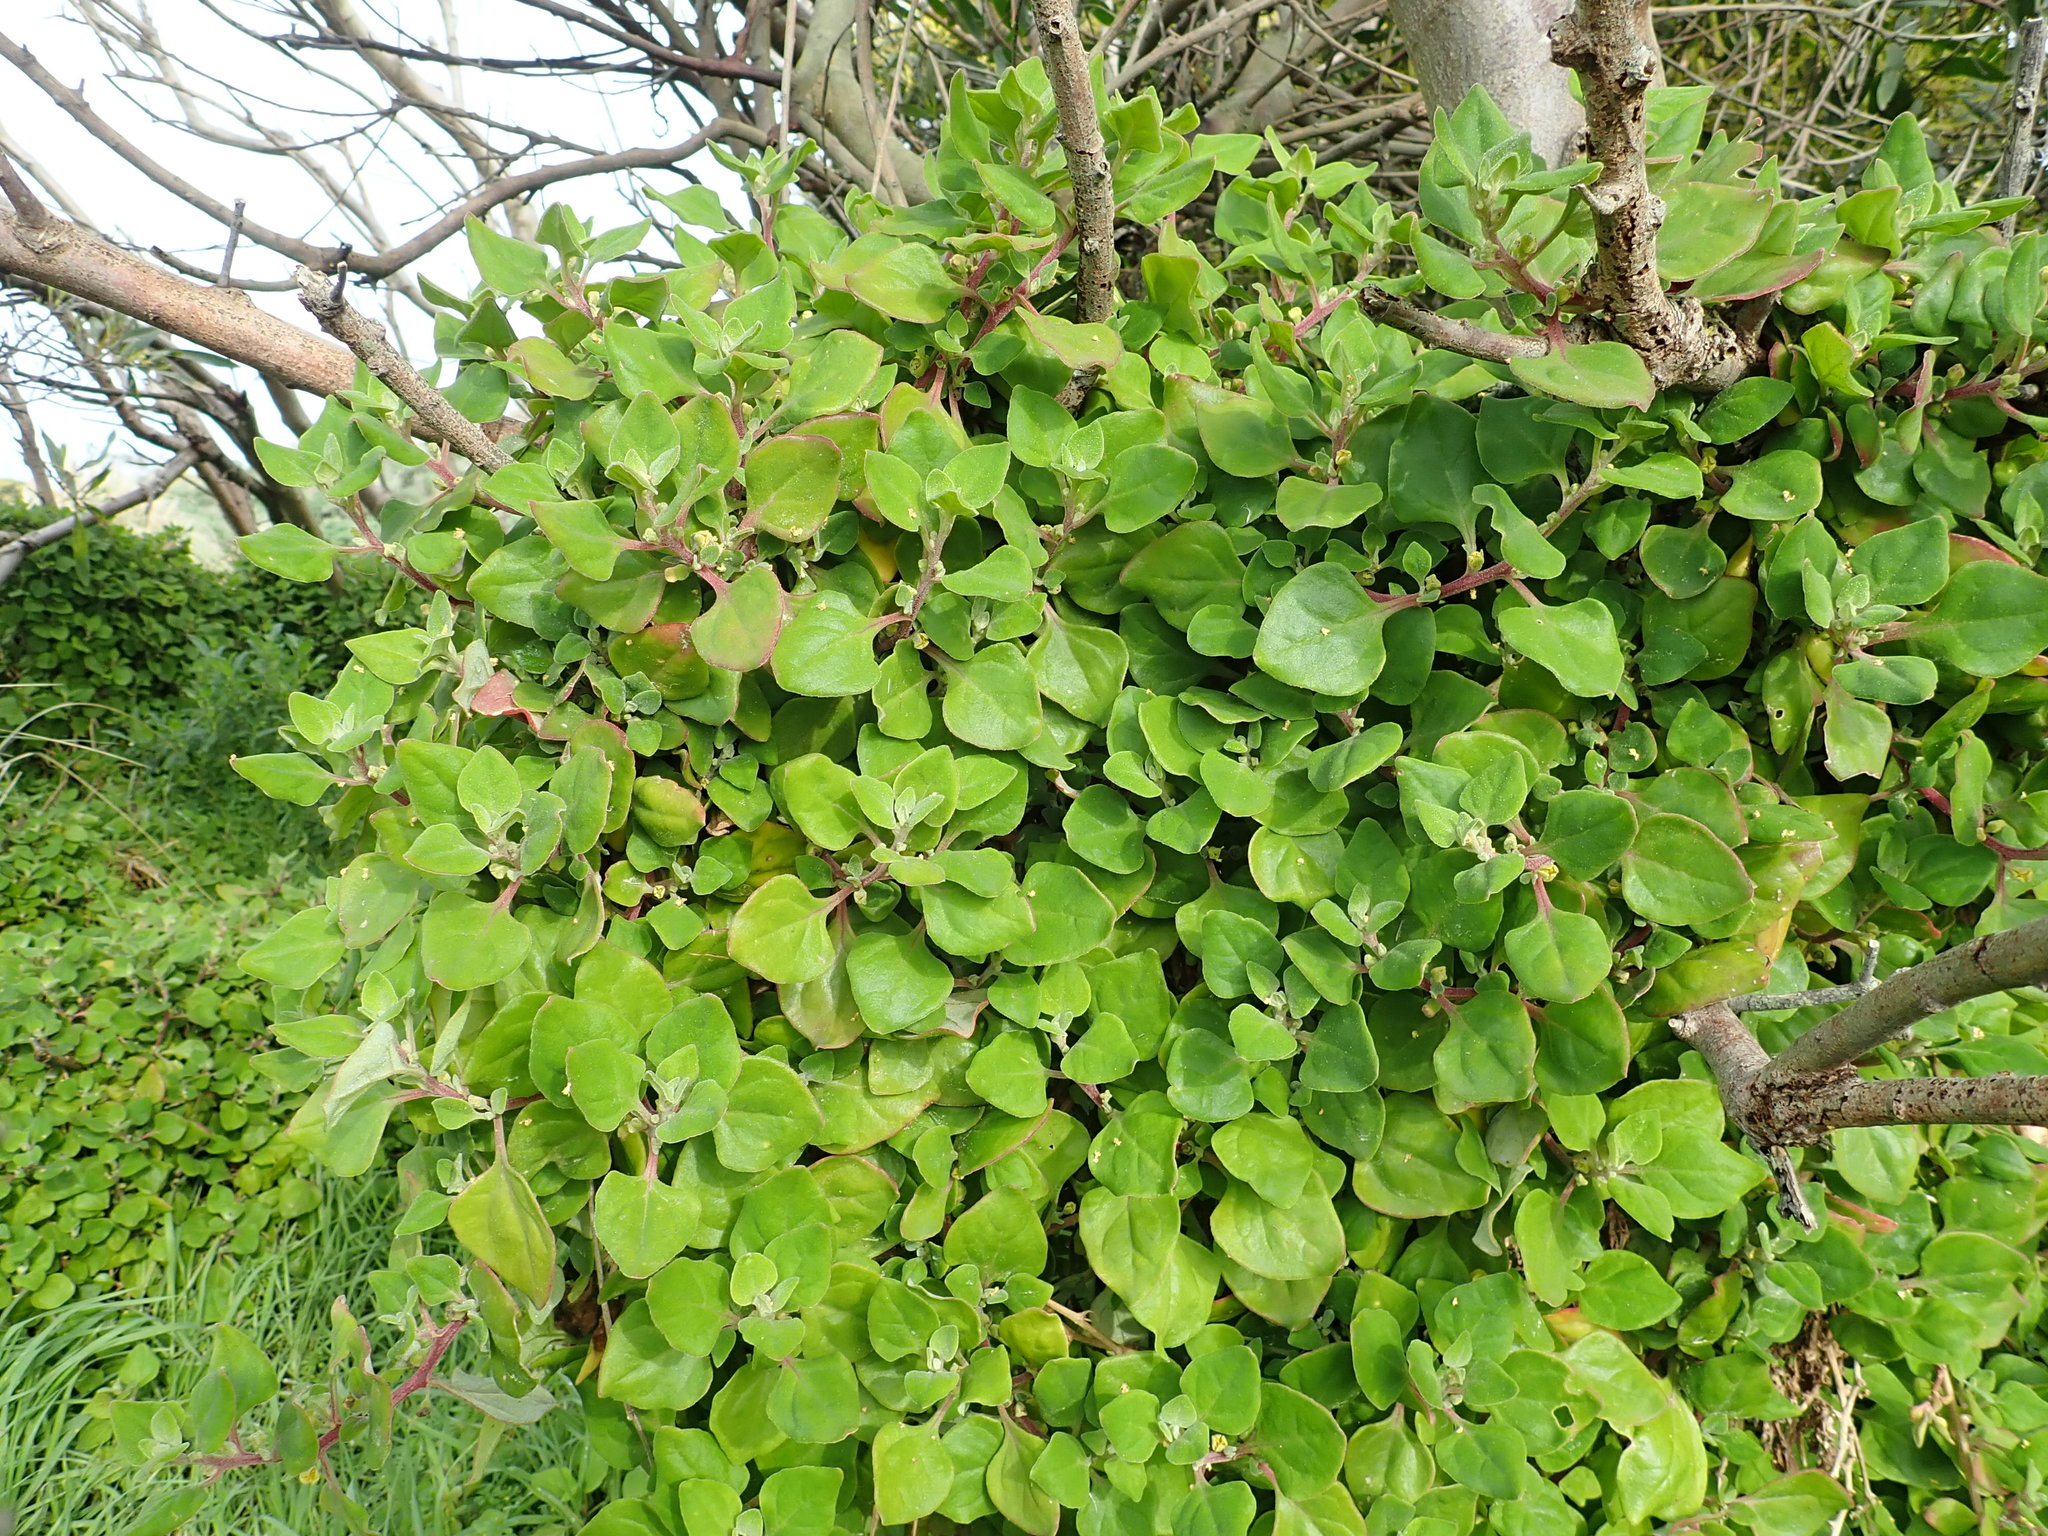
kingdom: Plantae
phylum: Tracheophyta
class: Magnoliopsida
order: Caryophyllales
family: Aizoaceae
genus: Tetragonia
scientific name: Tetragonia implexicoma
